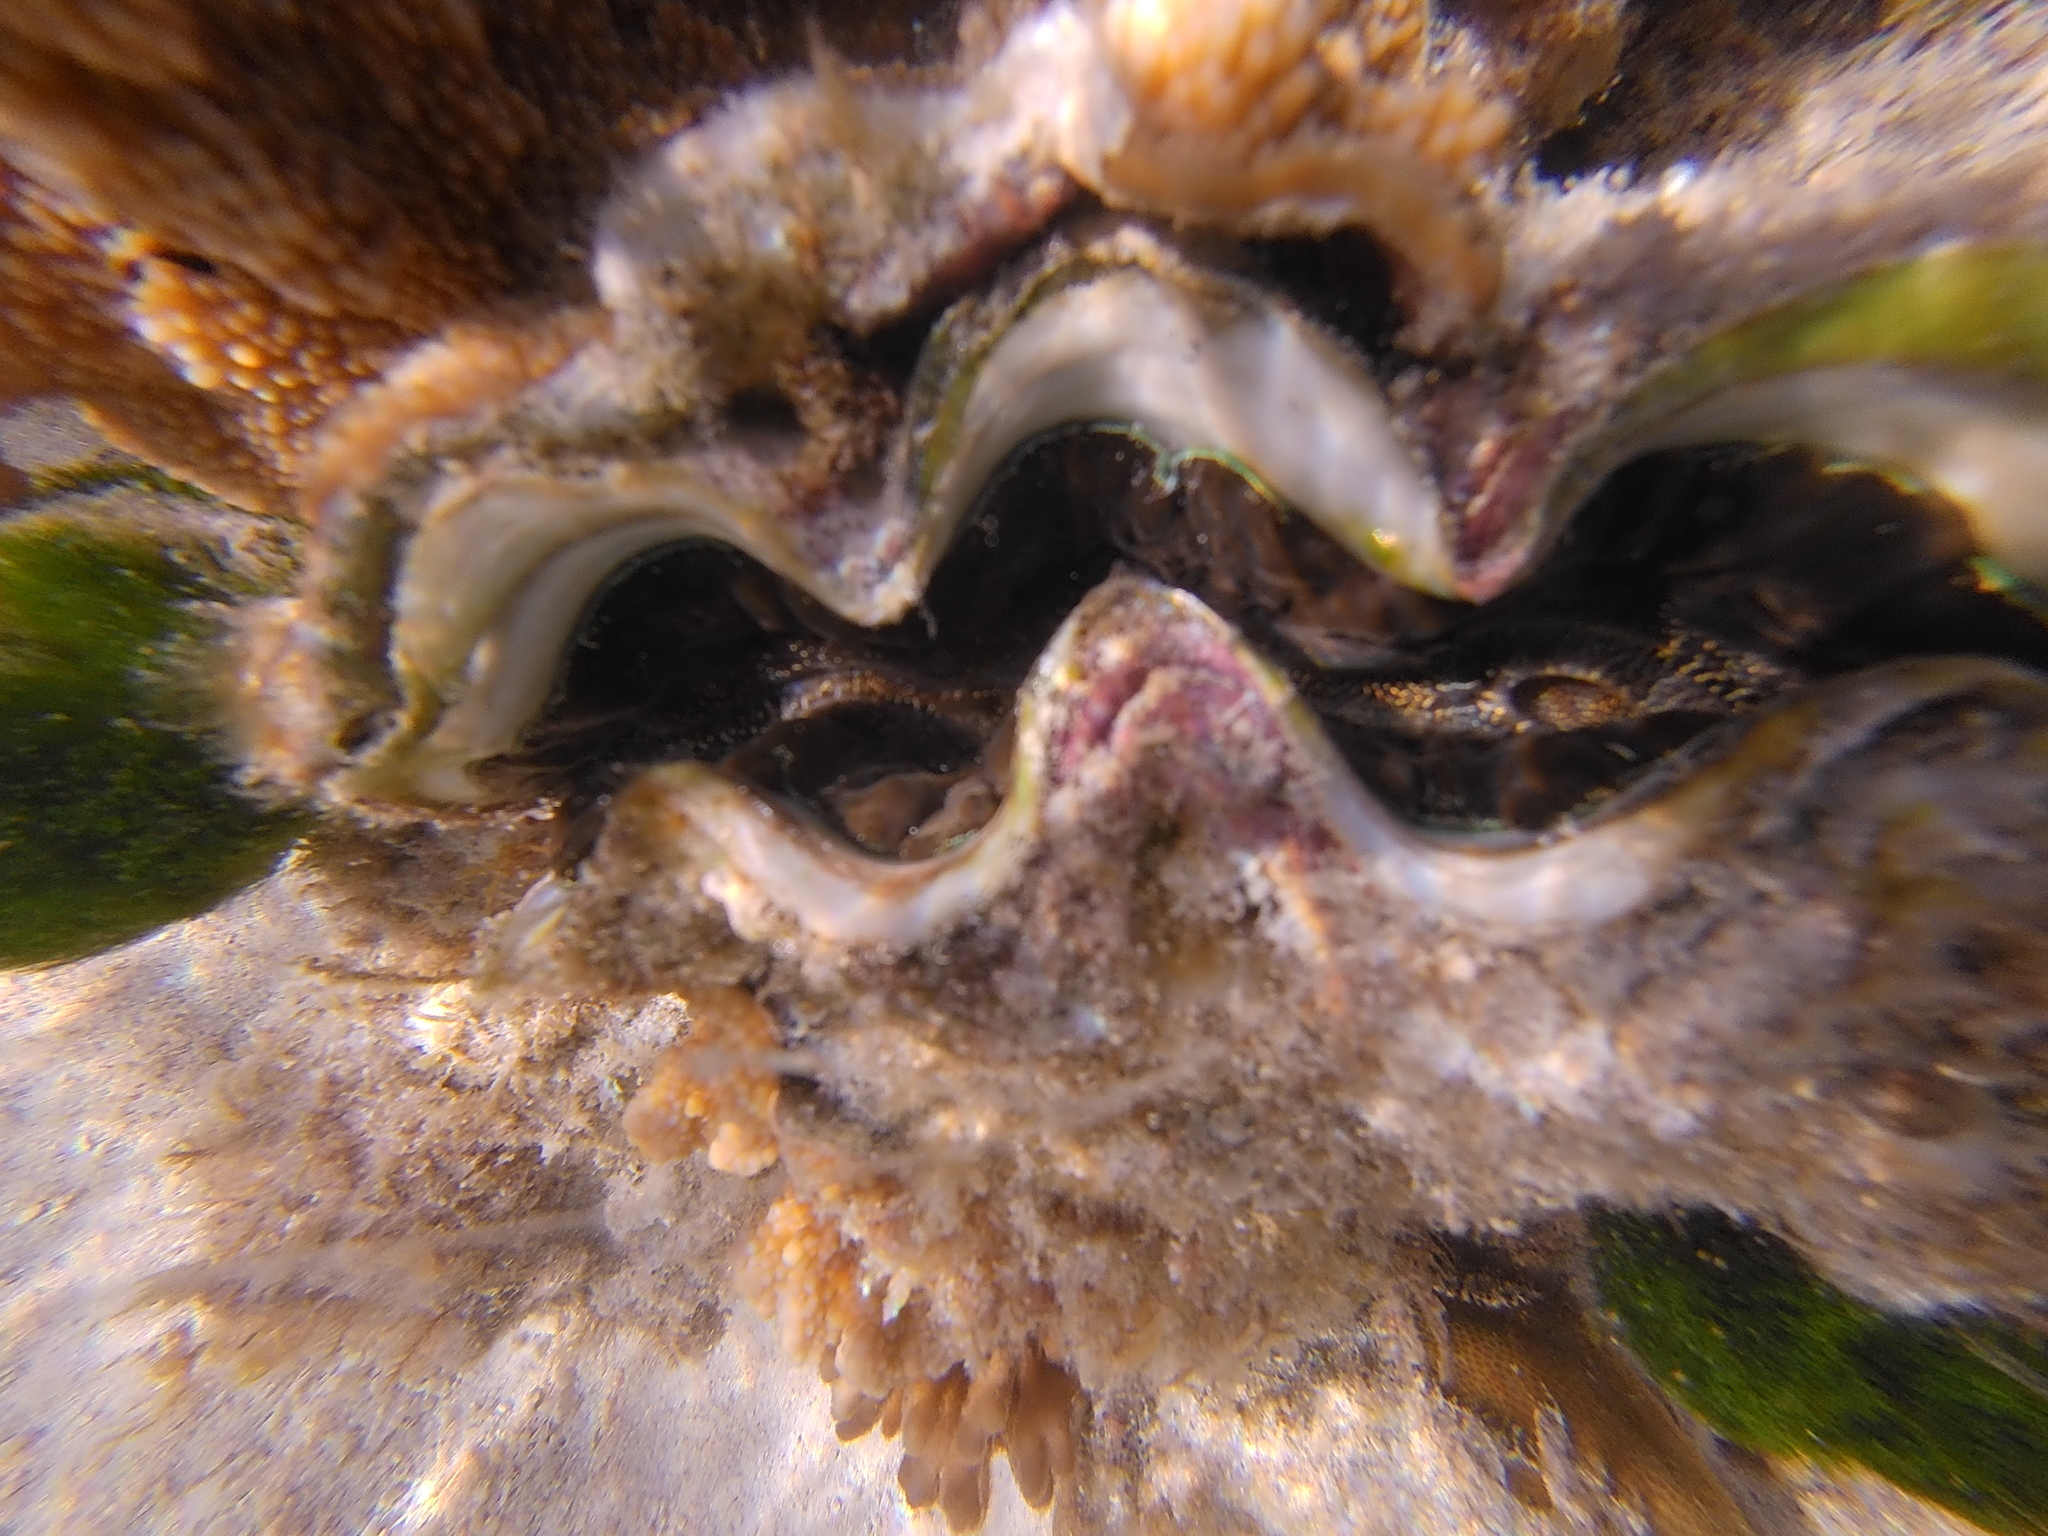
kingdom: Animalia
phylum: Mollusca
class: Bivalvia
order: Cardiida
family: Cardiidae
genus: Tridacna
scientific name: Tridacna maxima
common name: Small giant clam
